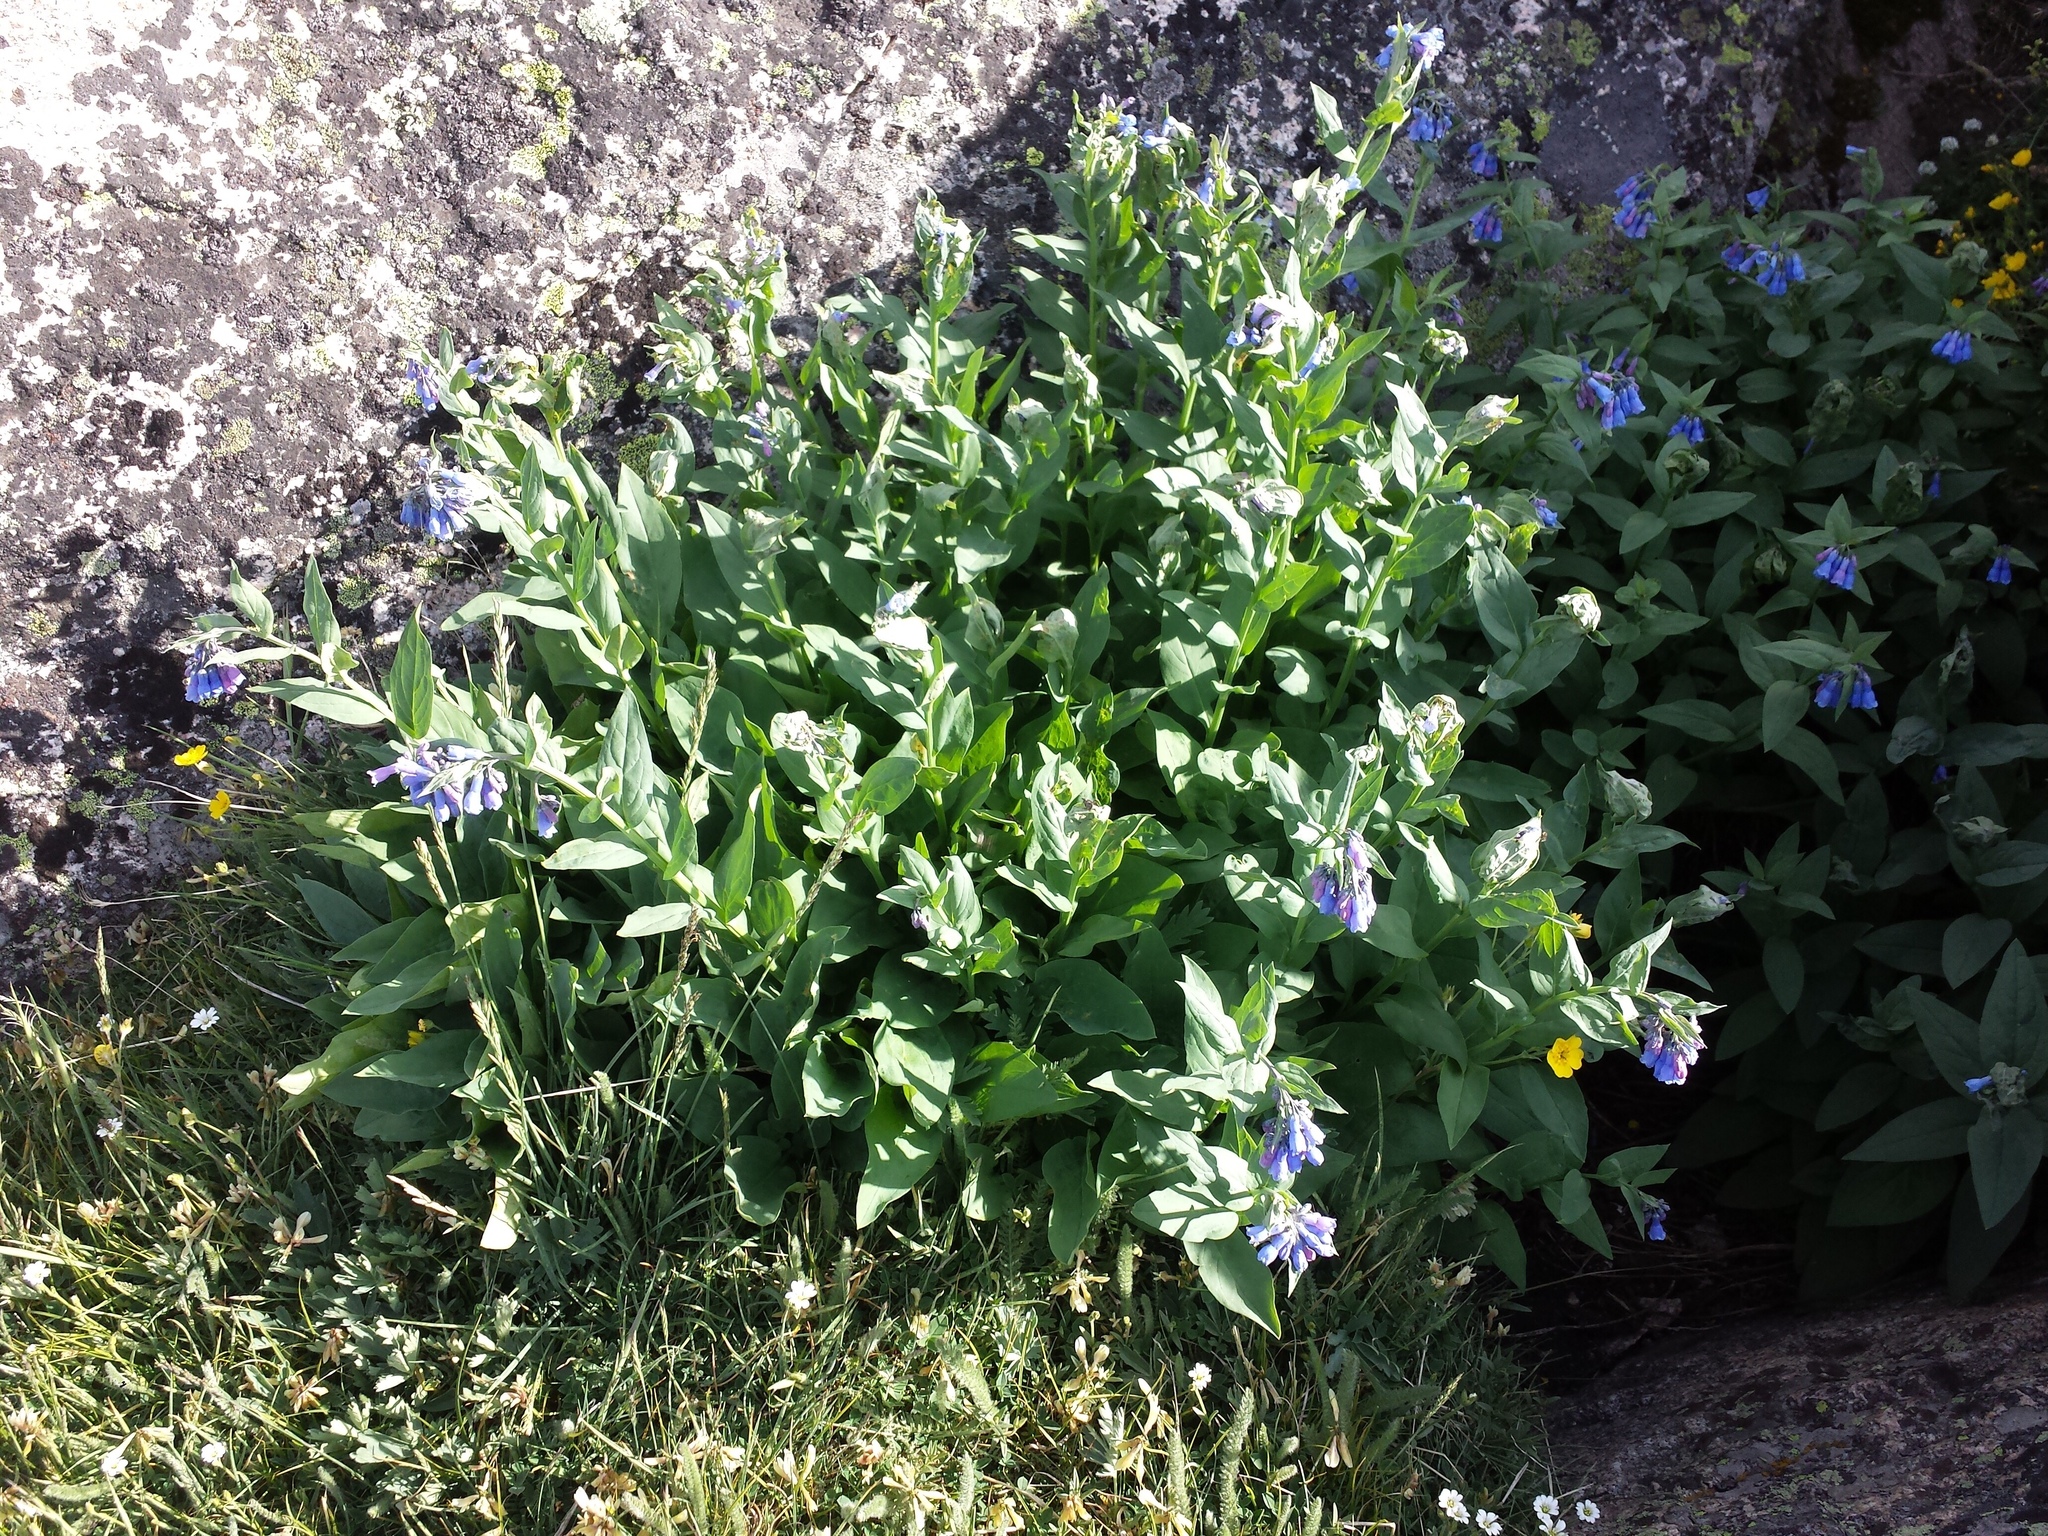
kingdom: Plantae
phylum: Tracheophyta
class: Magnoliopsida
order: Boraginales
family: Boraginaceae
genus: Mertensia
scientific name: Mertensia ciliata
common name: Tall chiming-bells
